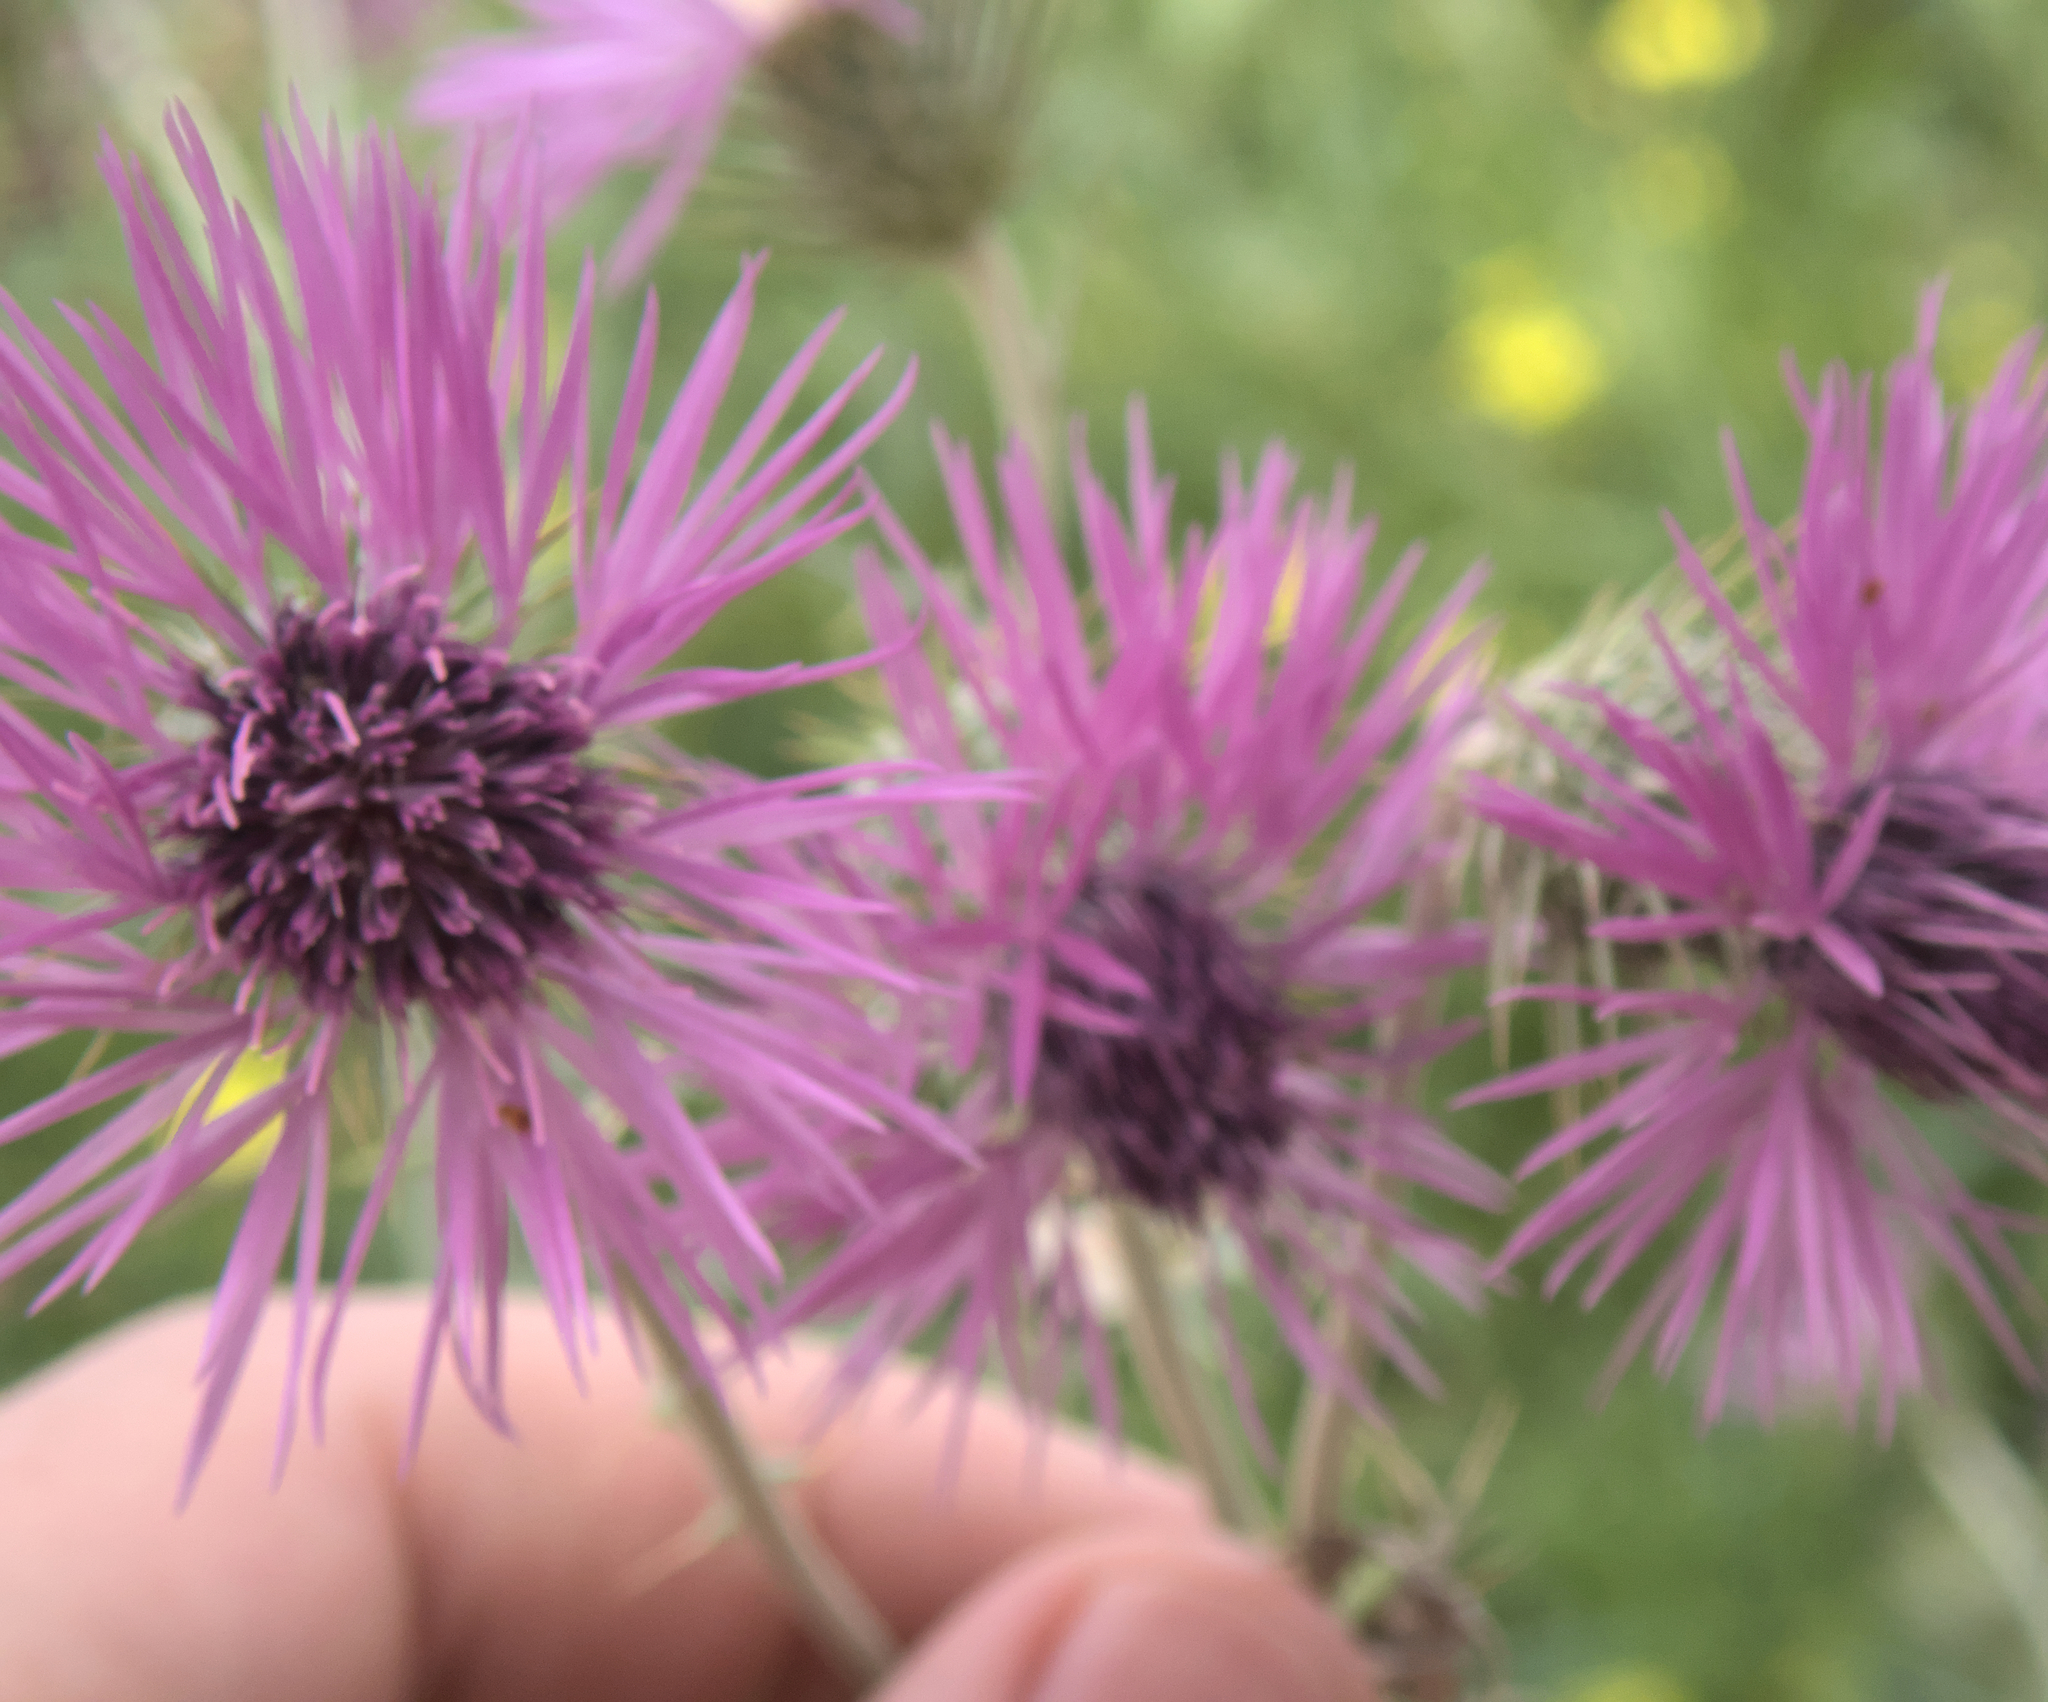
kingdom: Plantae
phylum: Tracheophyta
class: Magnoliopsida
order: Asterales
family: Asteraceae
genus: Galactites
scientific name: Galactites tomentosa
